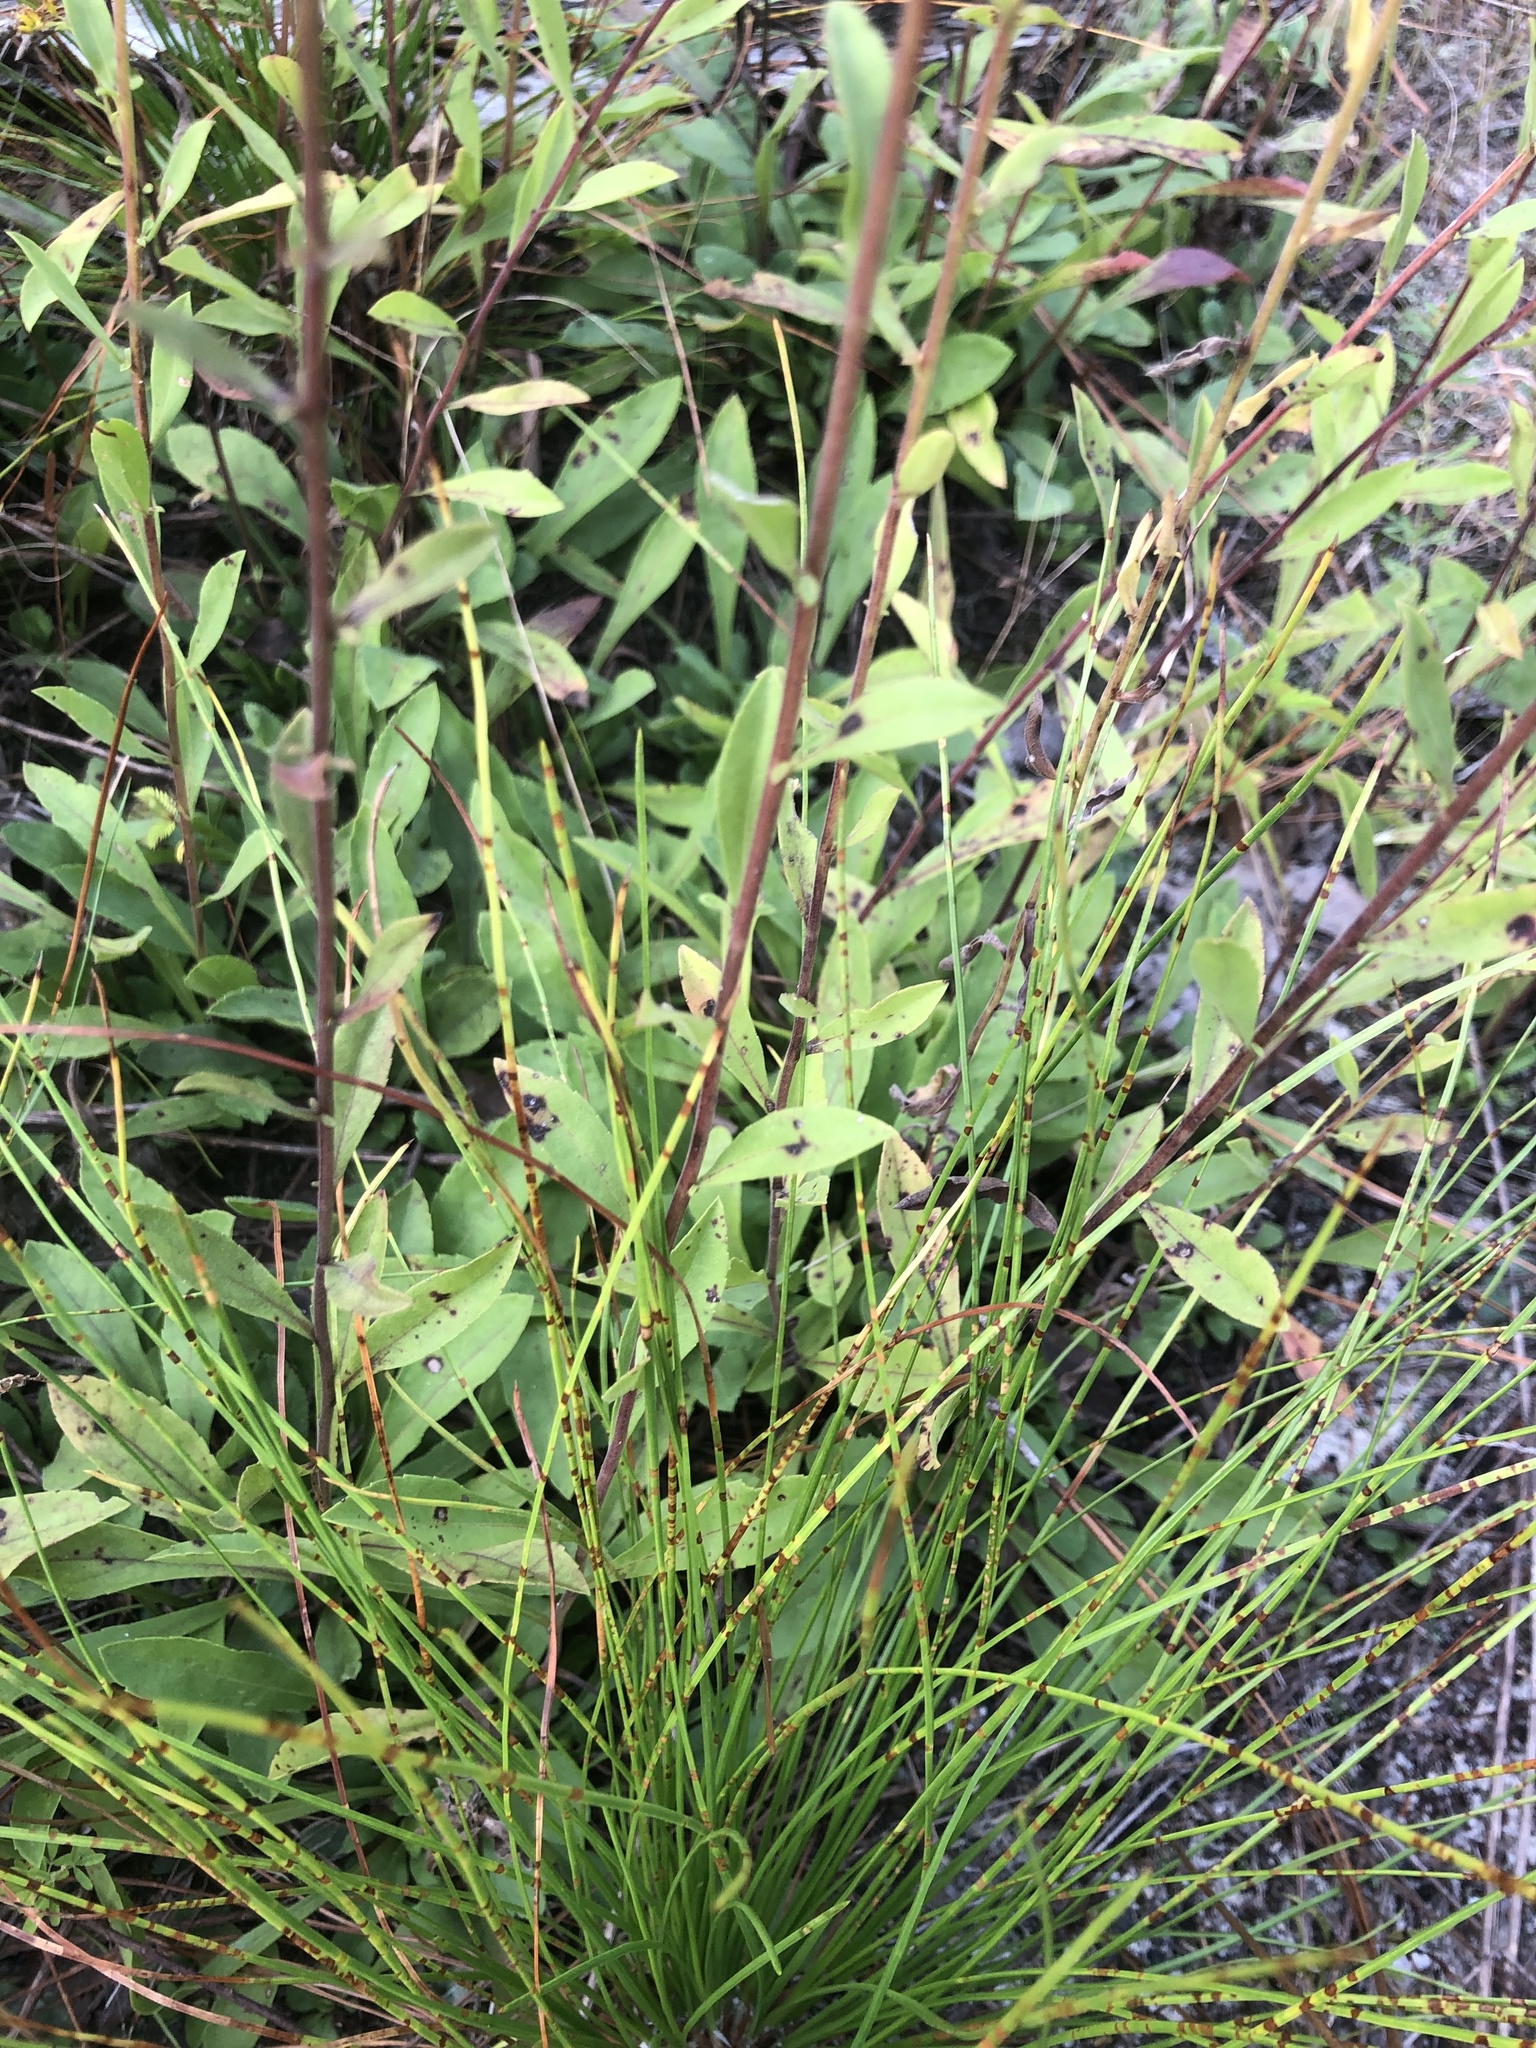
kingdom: Plantae
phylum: Tracheophyta
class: Magnoliopsida
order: Asterales
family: Asteraceae
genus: Solidago
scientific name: Solidago nemoralis
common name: Grey goldenrod
